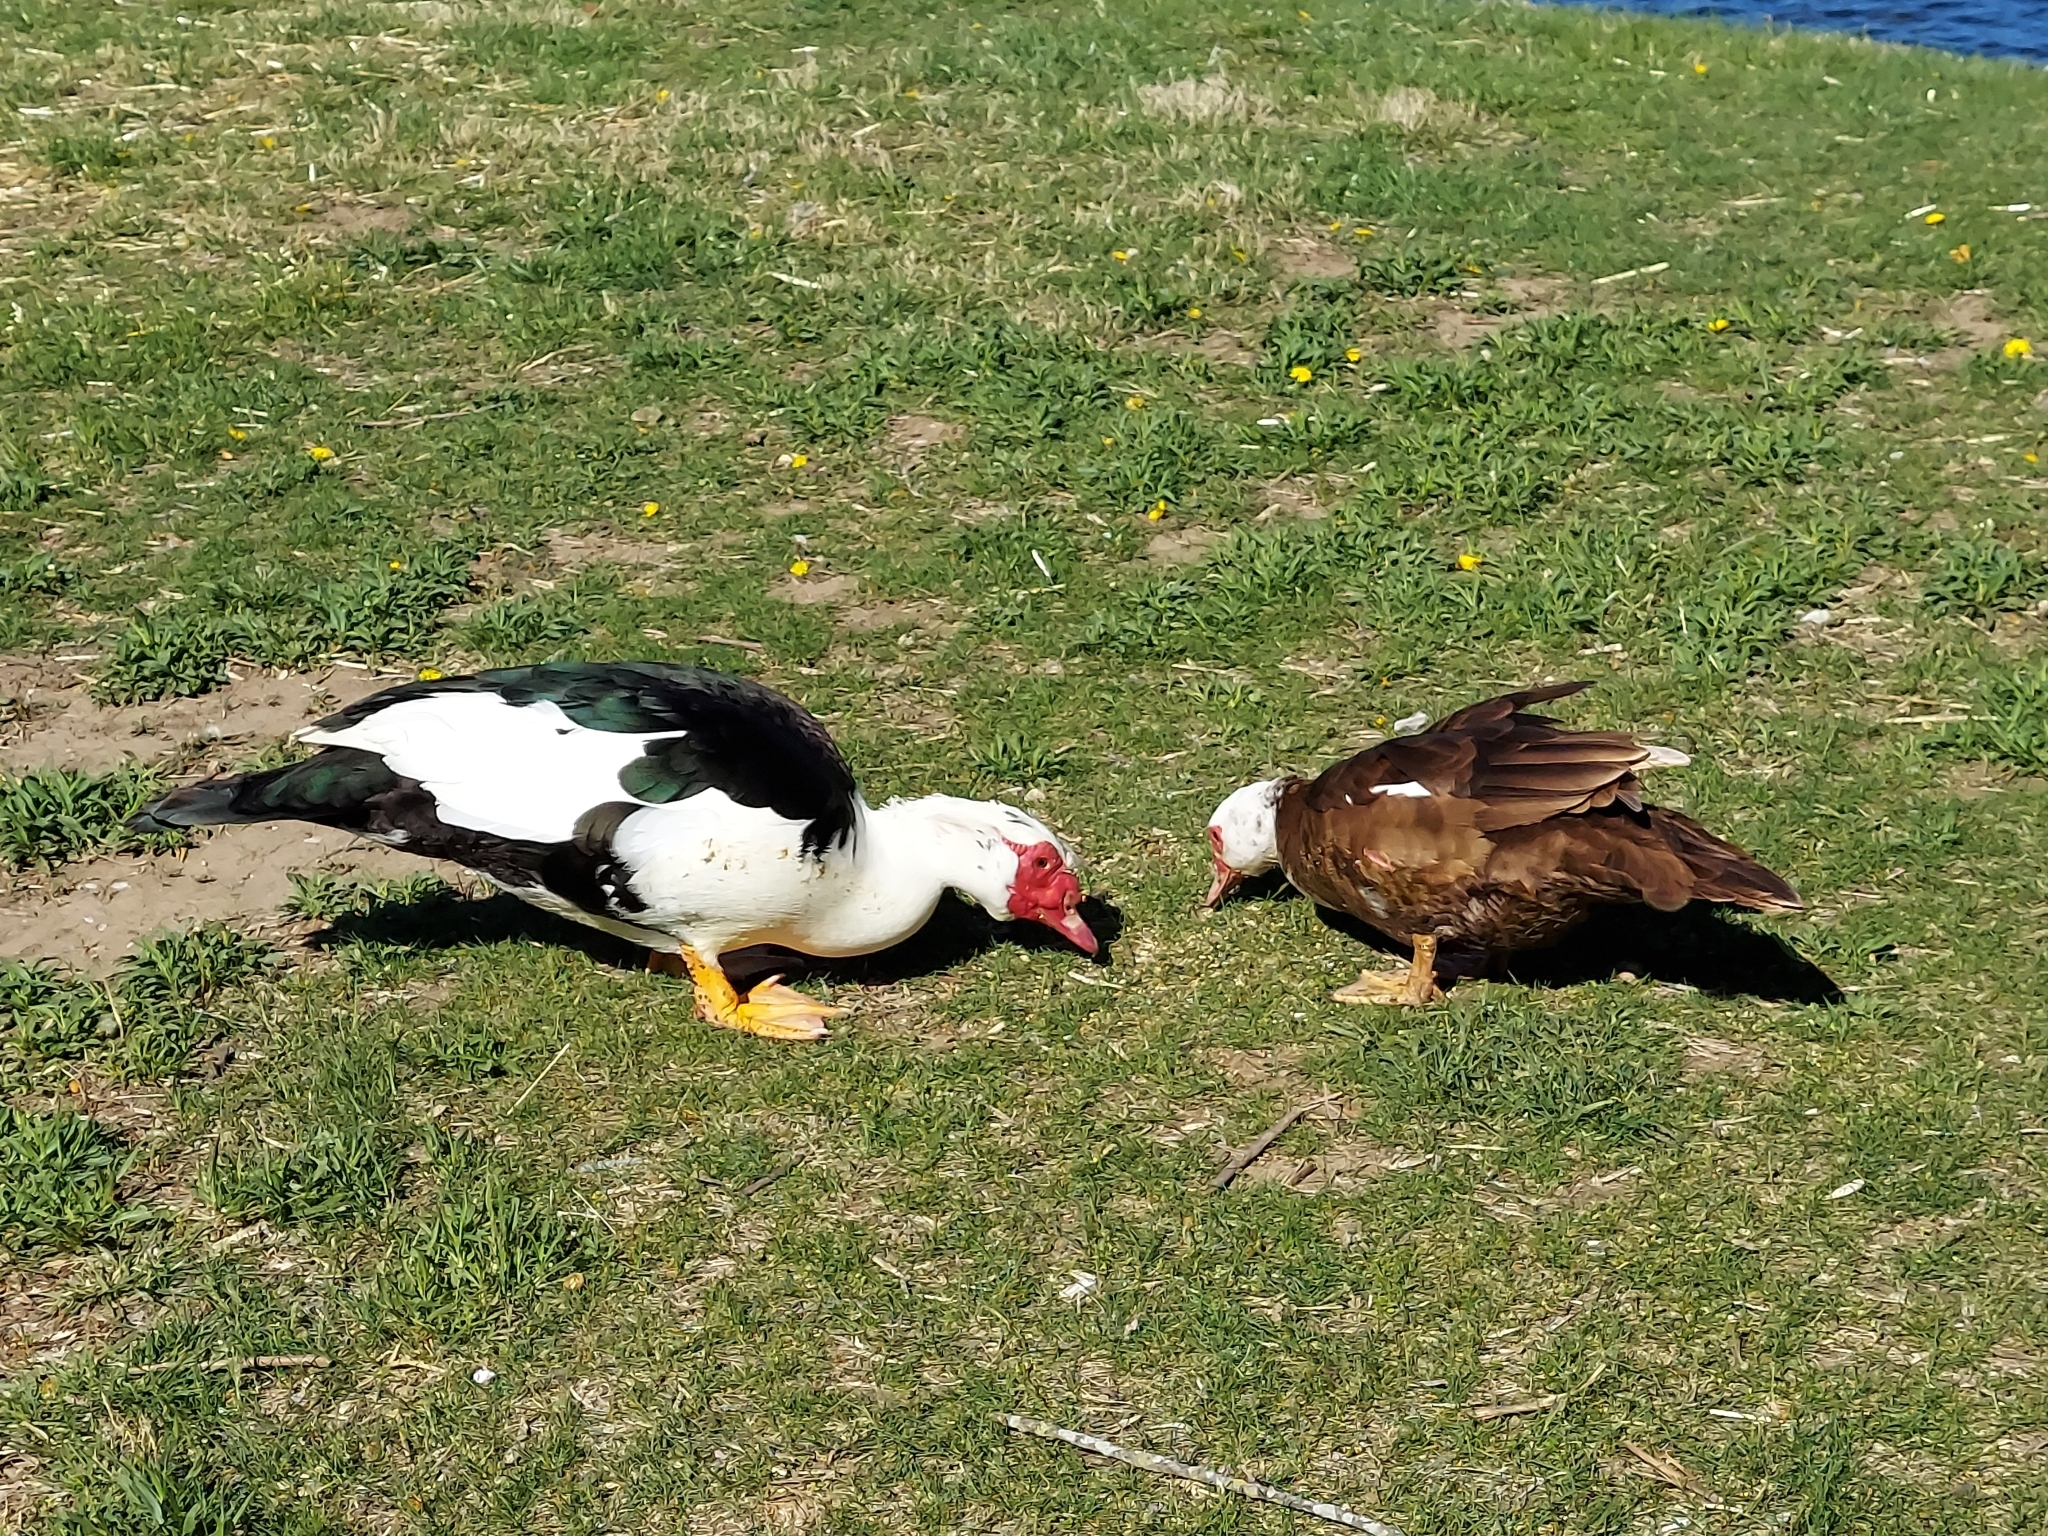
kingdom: Animalia
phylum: Chordata
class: Aves
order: Anseriformes
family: Anatidae
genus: Cairina
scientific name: Cairina moschata
